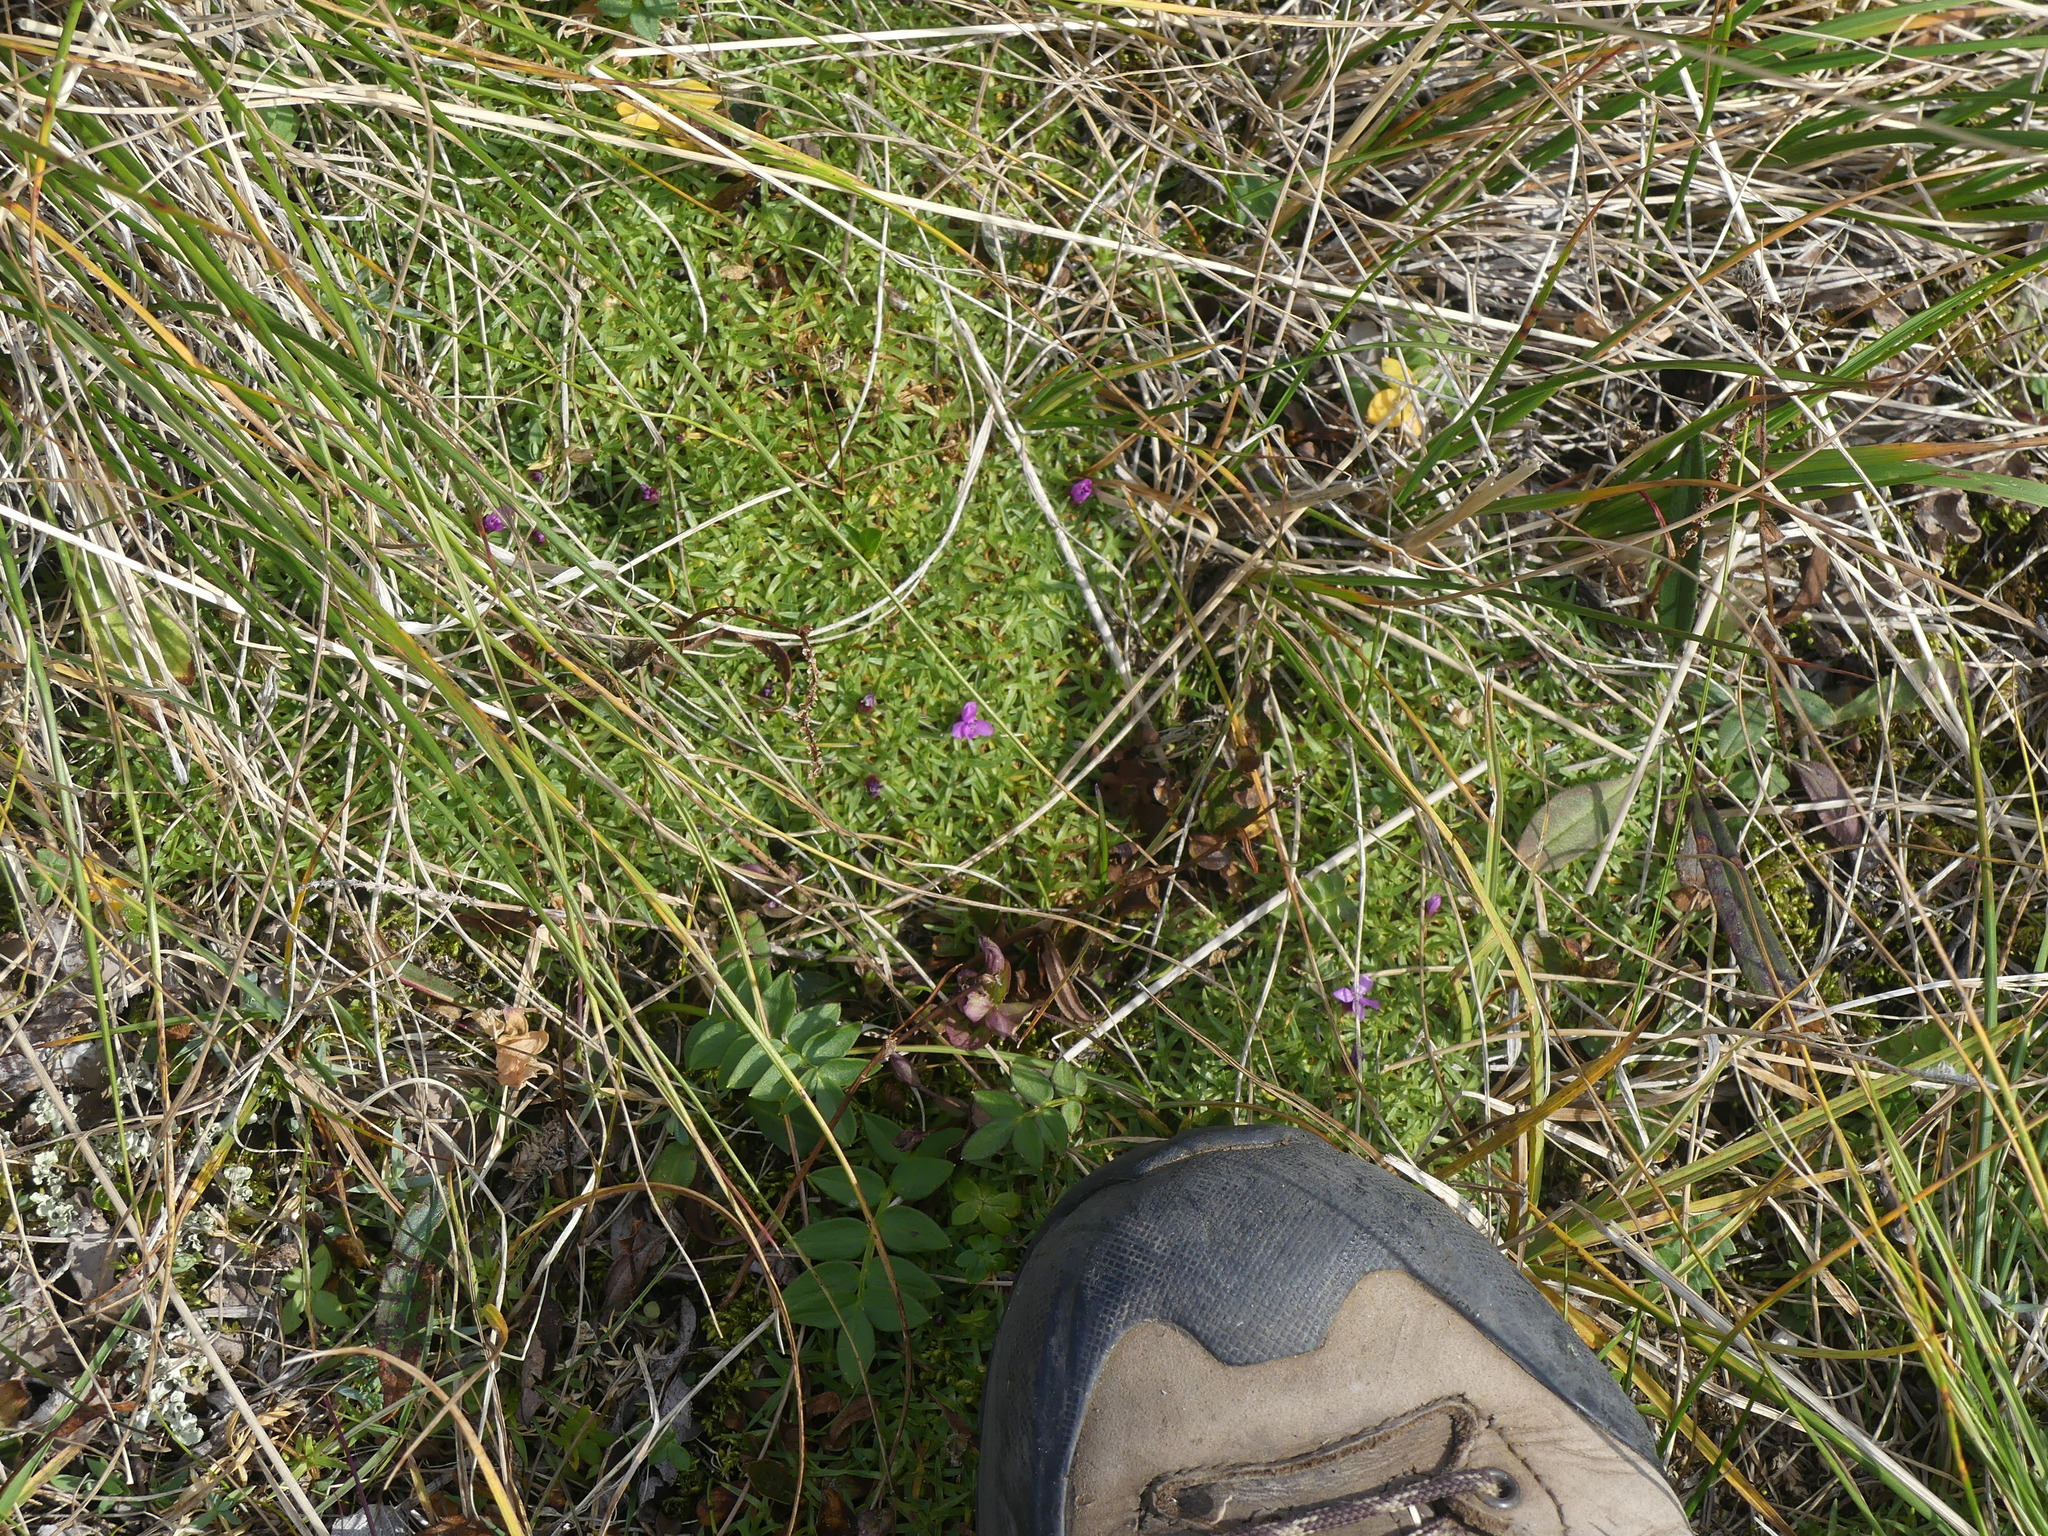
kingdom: Plantae
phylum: Tracheophyta
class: Magnoliopsida
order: Caryophyllales
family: Caryophyllaceae
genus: Silene
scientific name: Silene acaulis
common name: Moss campion
